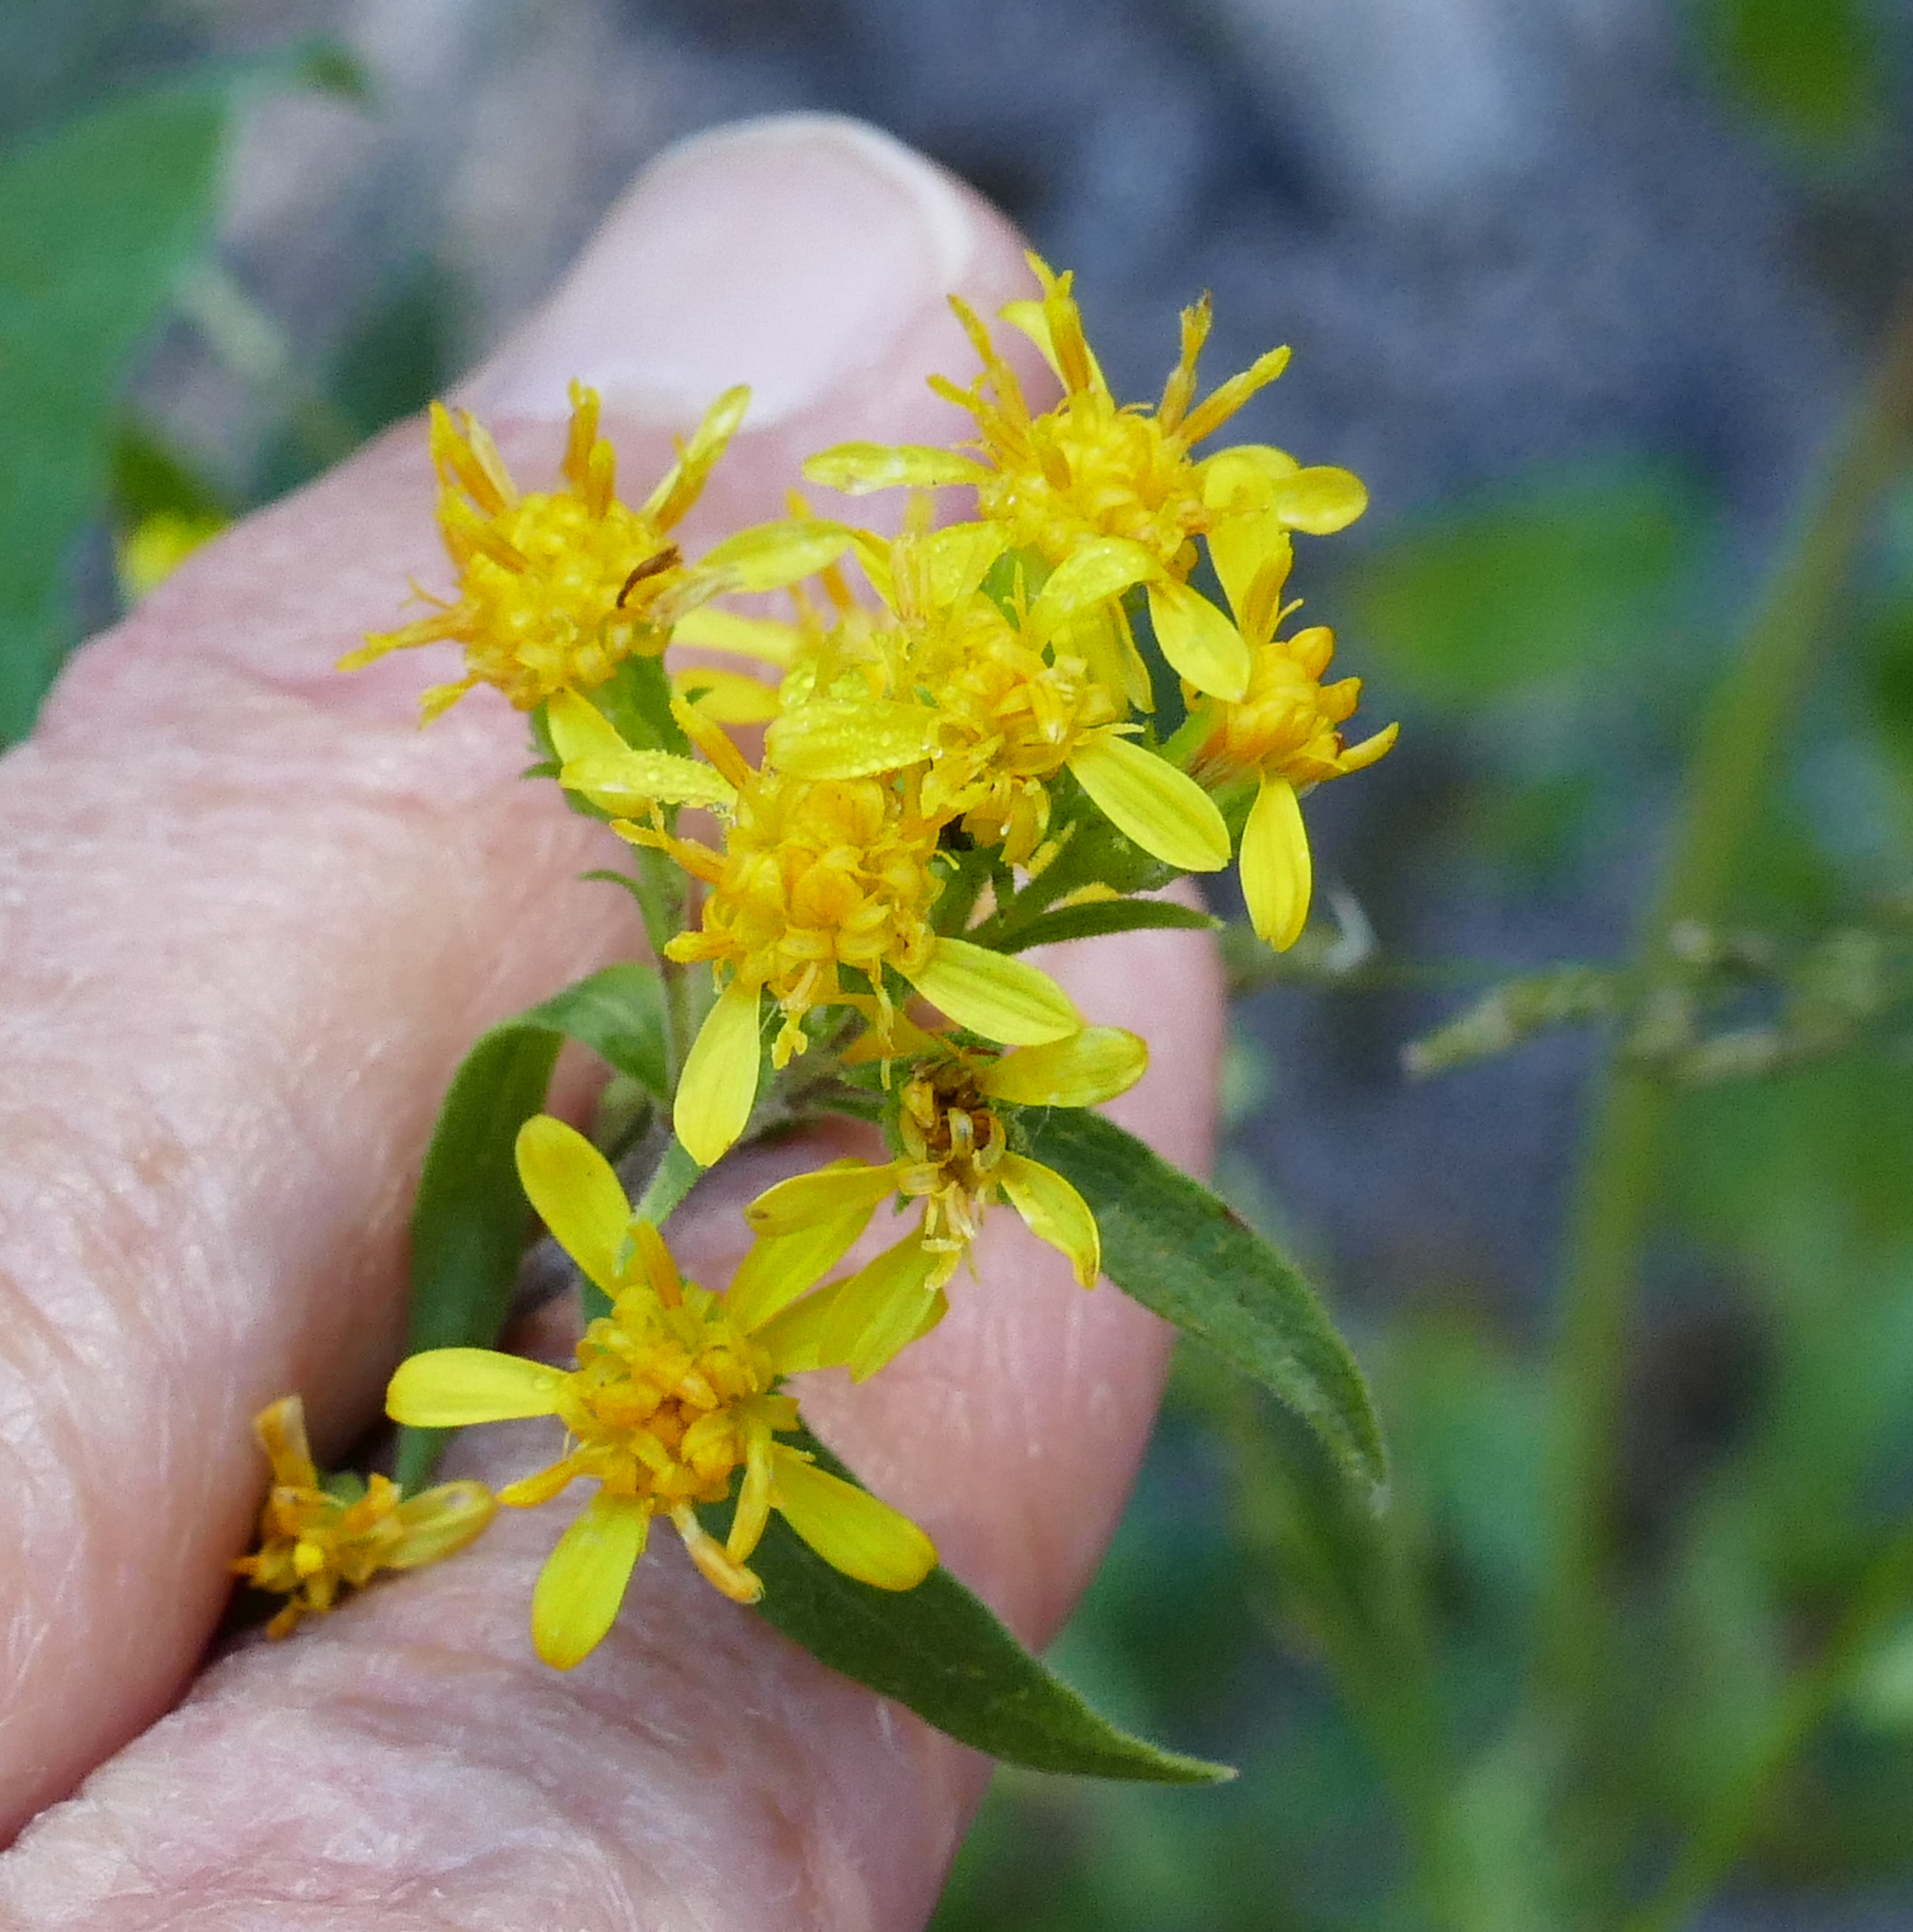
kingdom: Plantae
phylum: Tracheophyta
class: Magnoliopsida
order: Asterales
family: Asteraceae
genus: Solidago
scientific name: Solidago wrightii
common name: Wright's goldenrod
